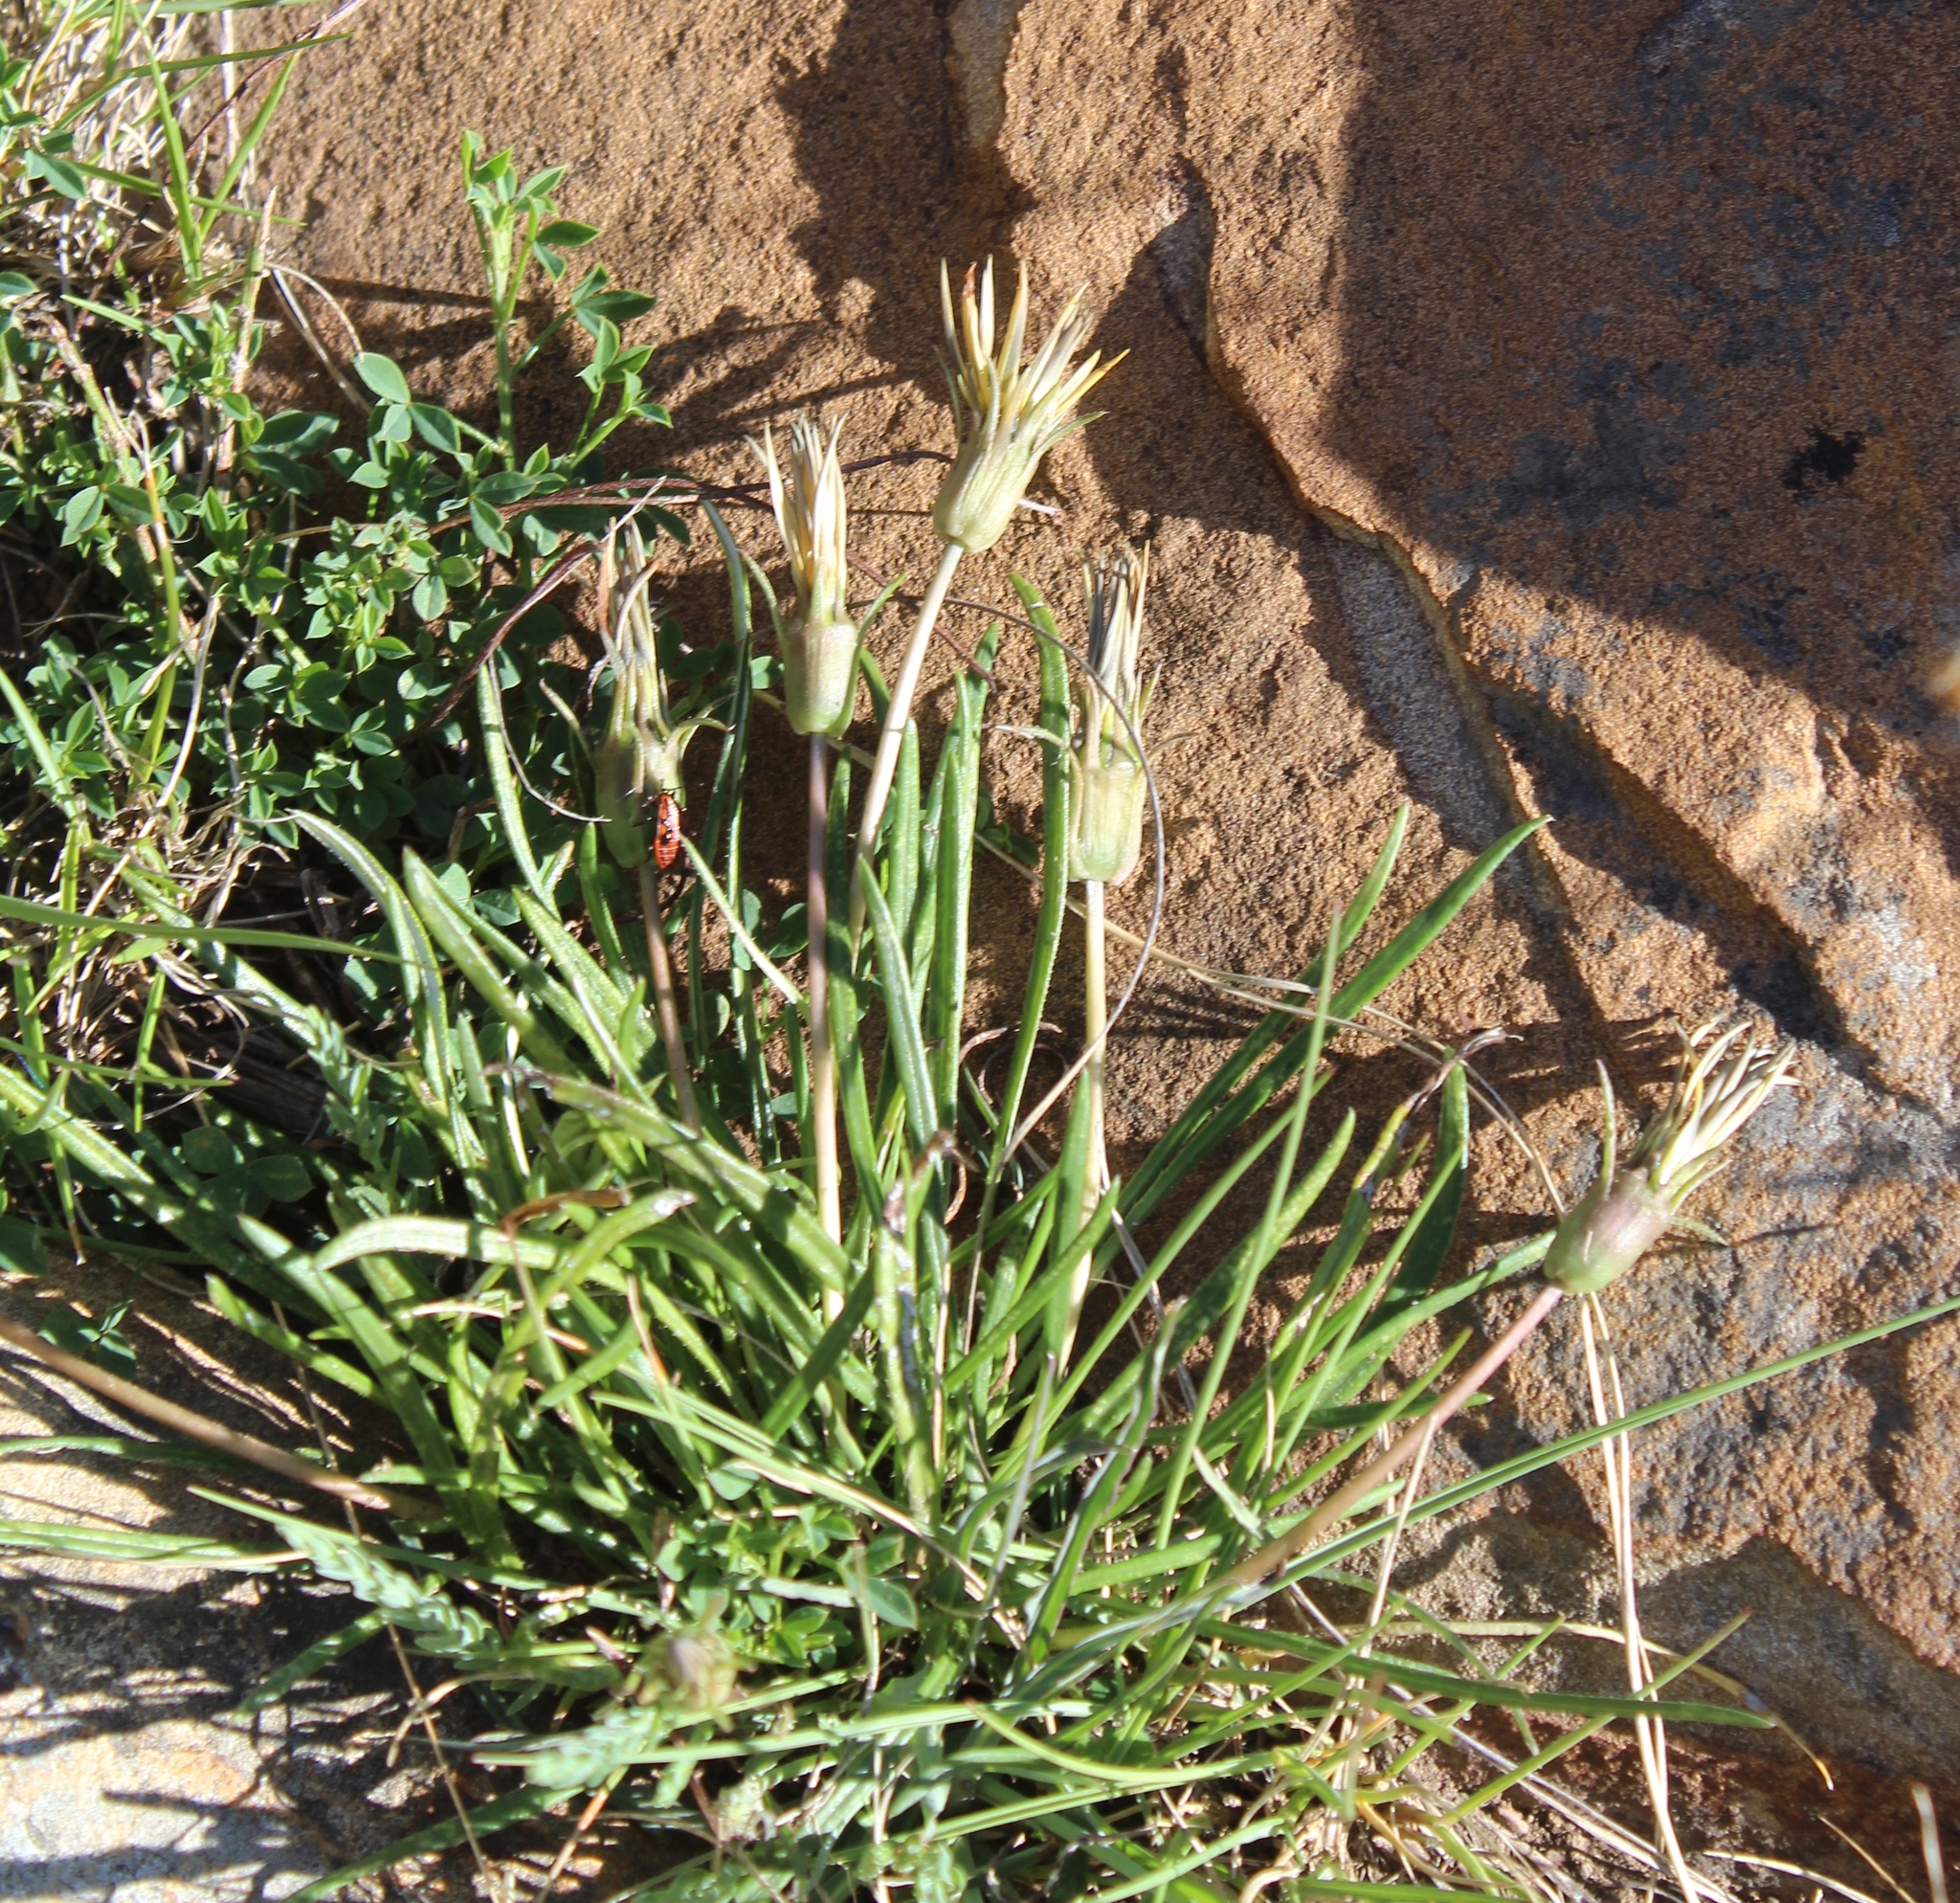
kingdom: Plantae
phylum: Tracheophyta
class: Magnoliopsida
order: Asterales
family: Asteraceae
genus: Gazania
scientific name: Gazania linearis
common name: Treasureflower
